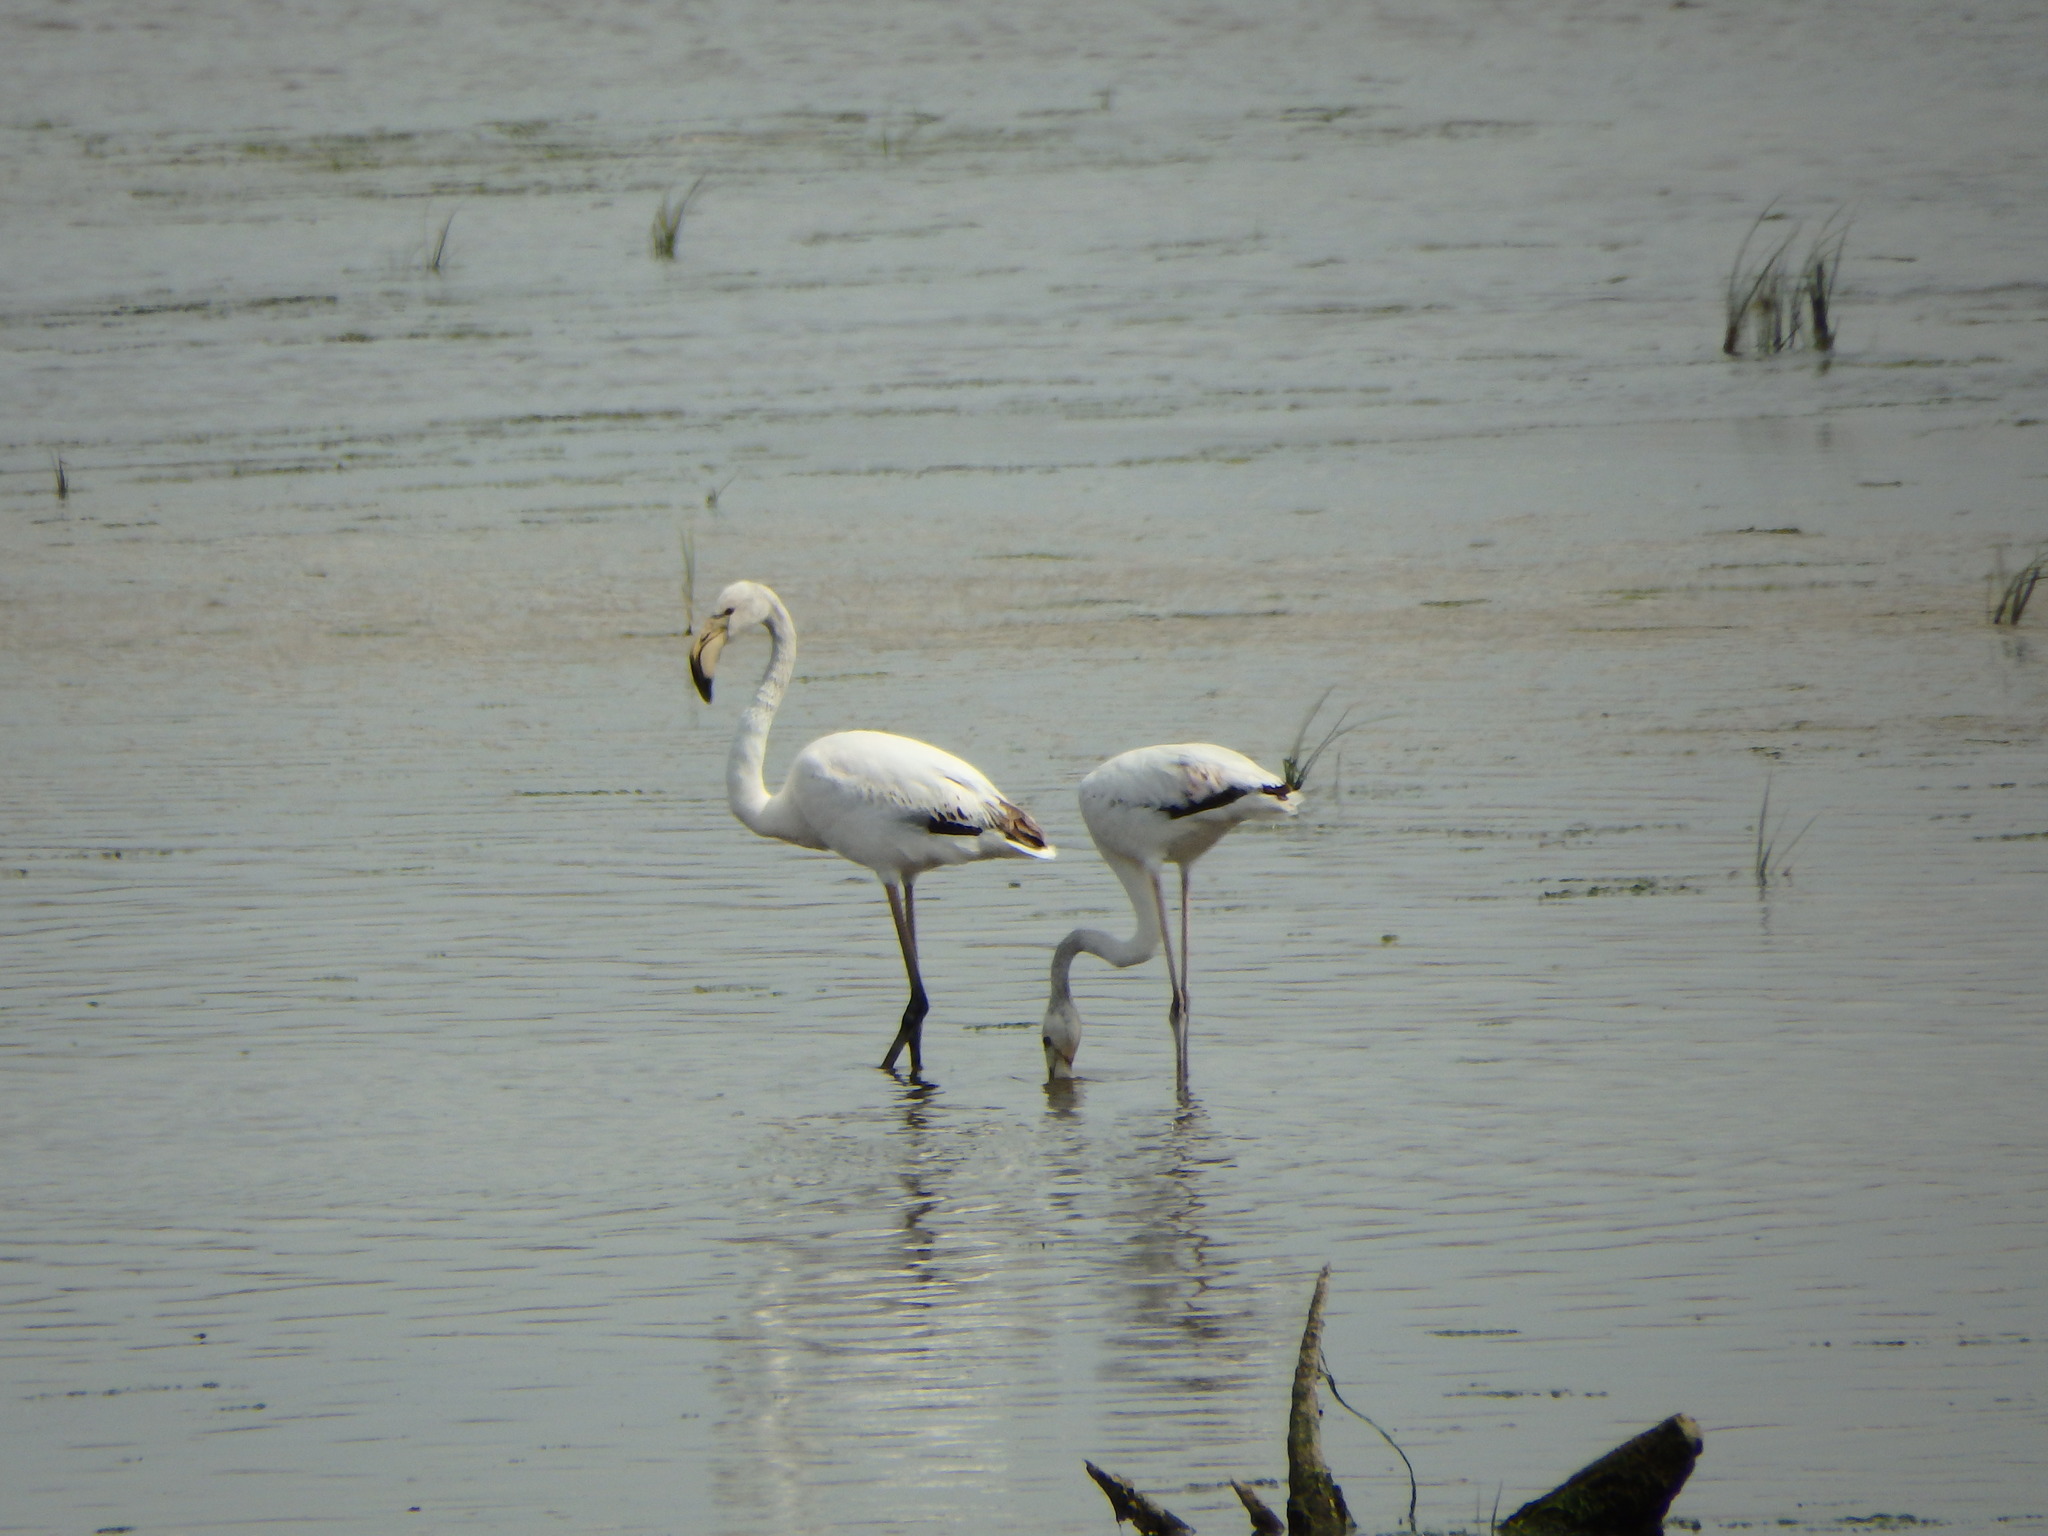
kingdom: Animalia
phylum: Chordata
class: Aves
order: Phoenicopteriformes
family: Phoenicopteridae
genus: Phoenicopterus
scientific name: Phoenicopterus roseus
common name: Greater flamingo
